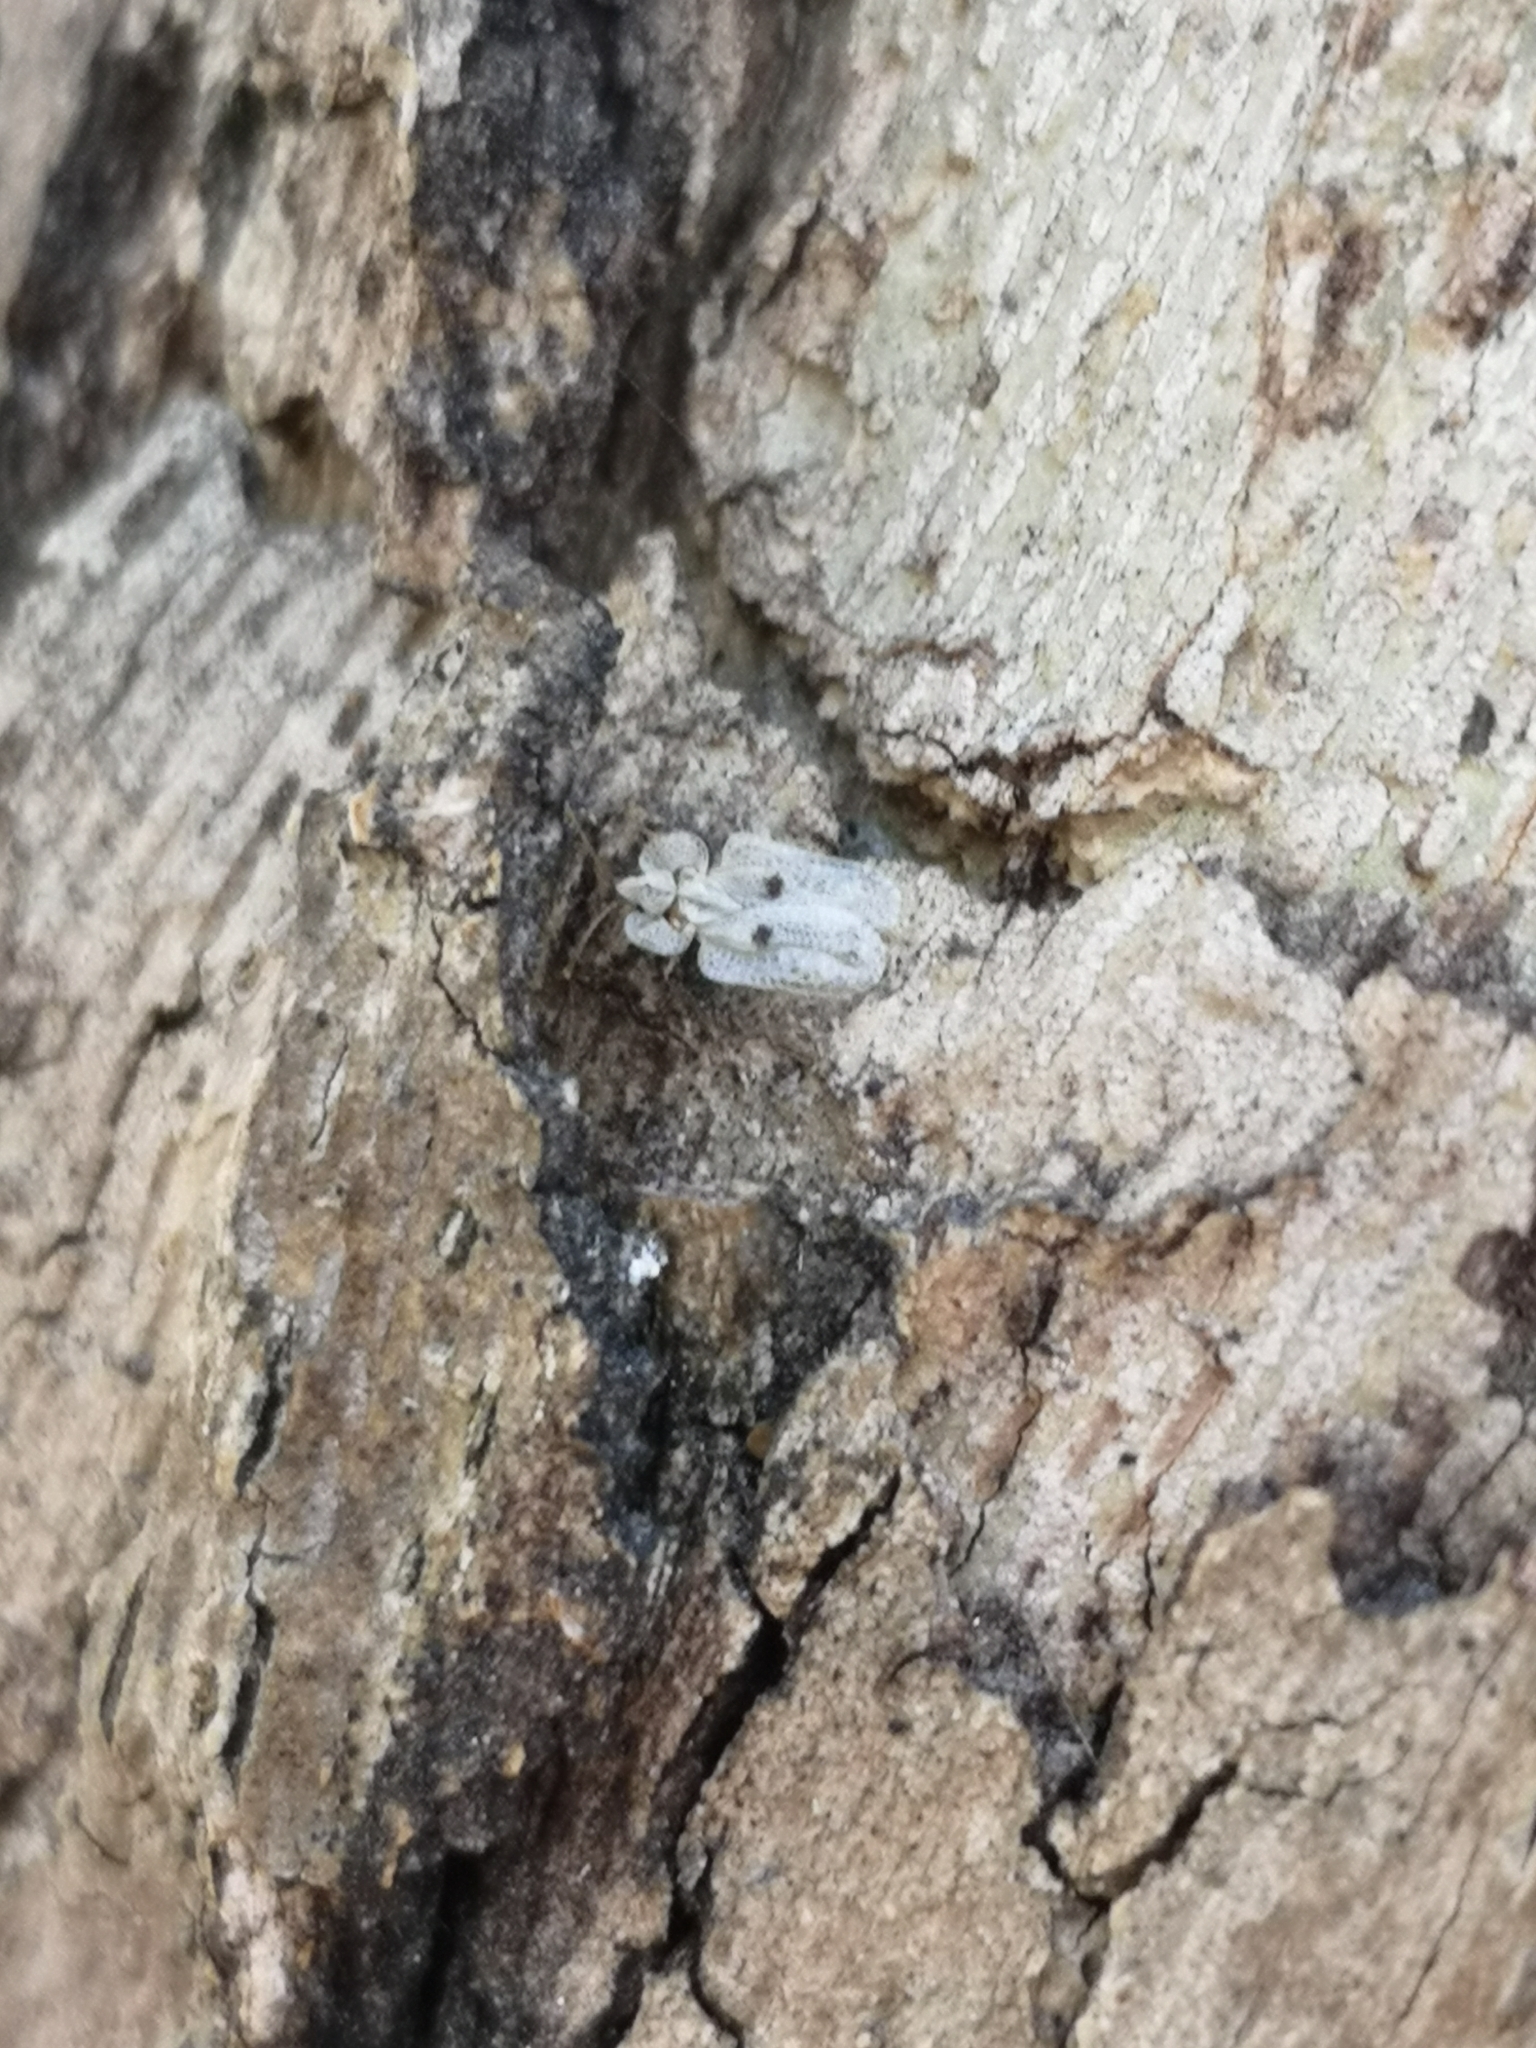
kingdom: Animalia
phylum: Arthropoda
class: Insecta
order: Hemiptera
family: Tingidae
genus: Corythucha
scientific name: Corythucha ciliata
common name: Sycamore lace bug
